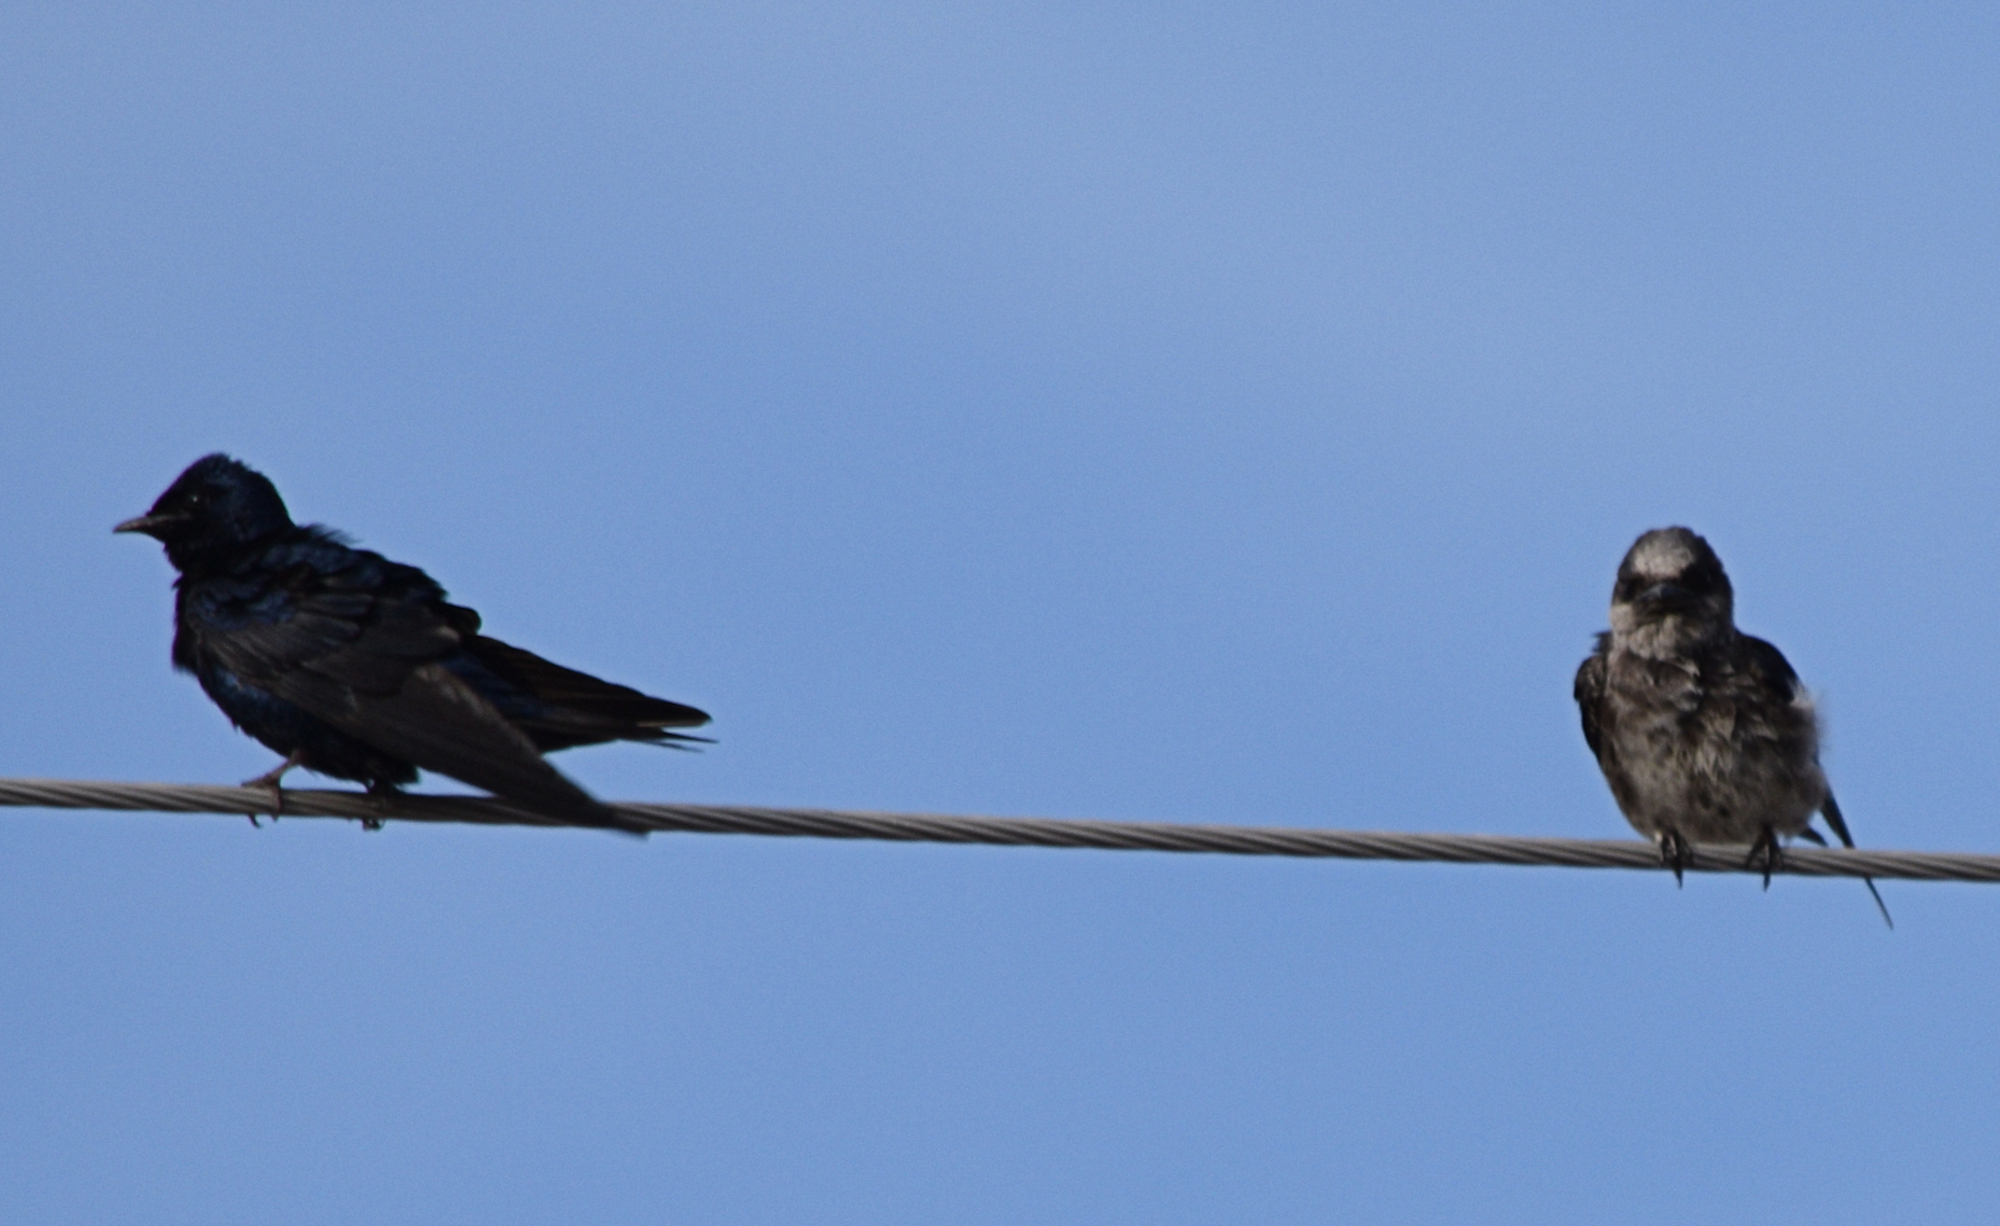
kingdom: Animalia
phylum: Chordata
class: Aves
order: Passeriformes
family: Hirundinidae
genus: Progne
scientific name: Progne subis
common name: Purple martin
